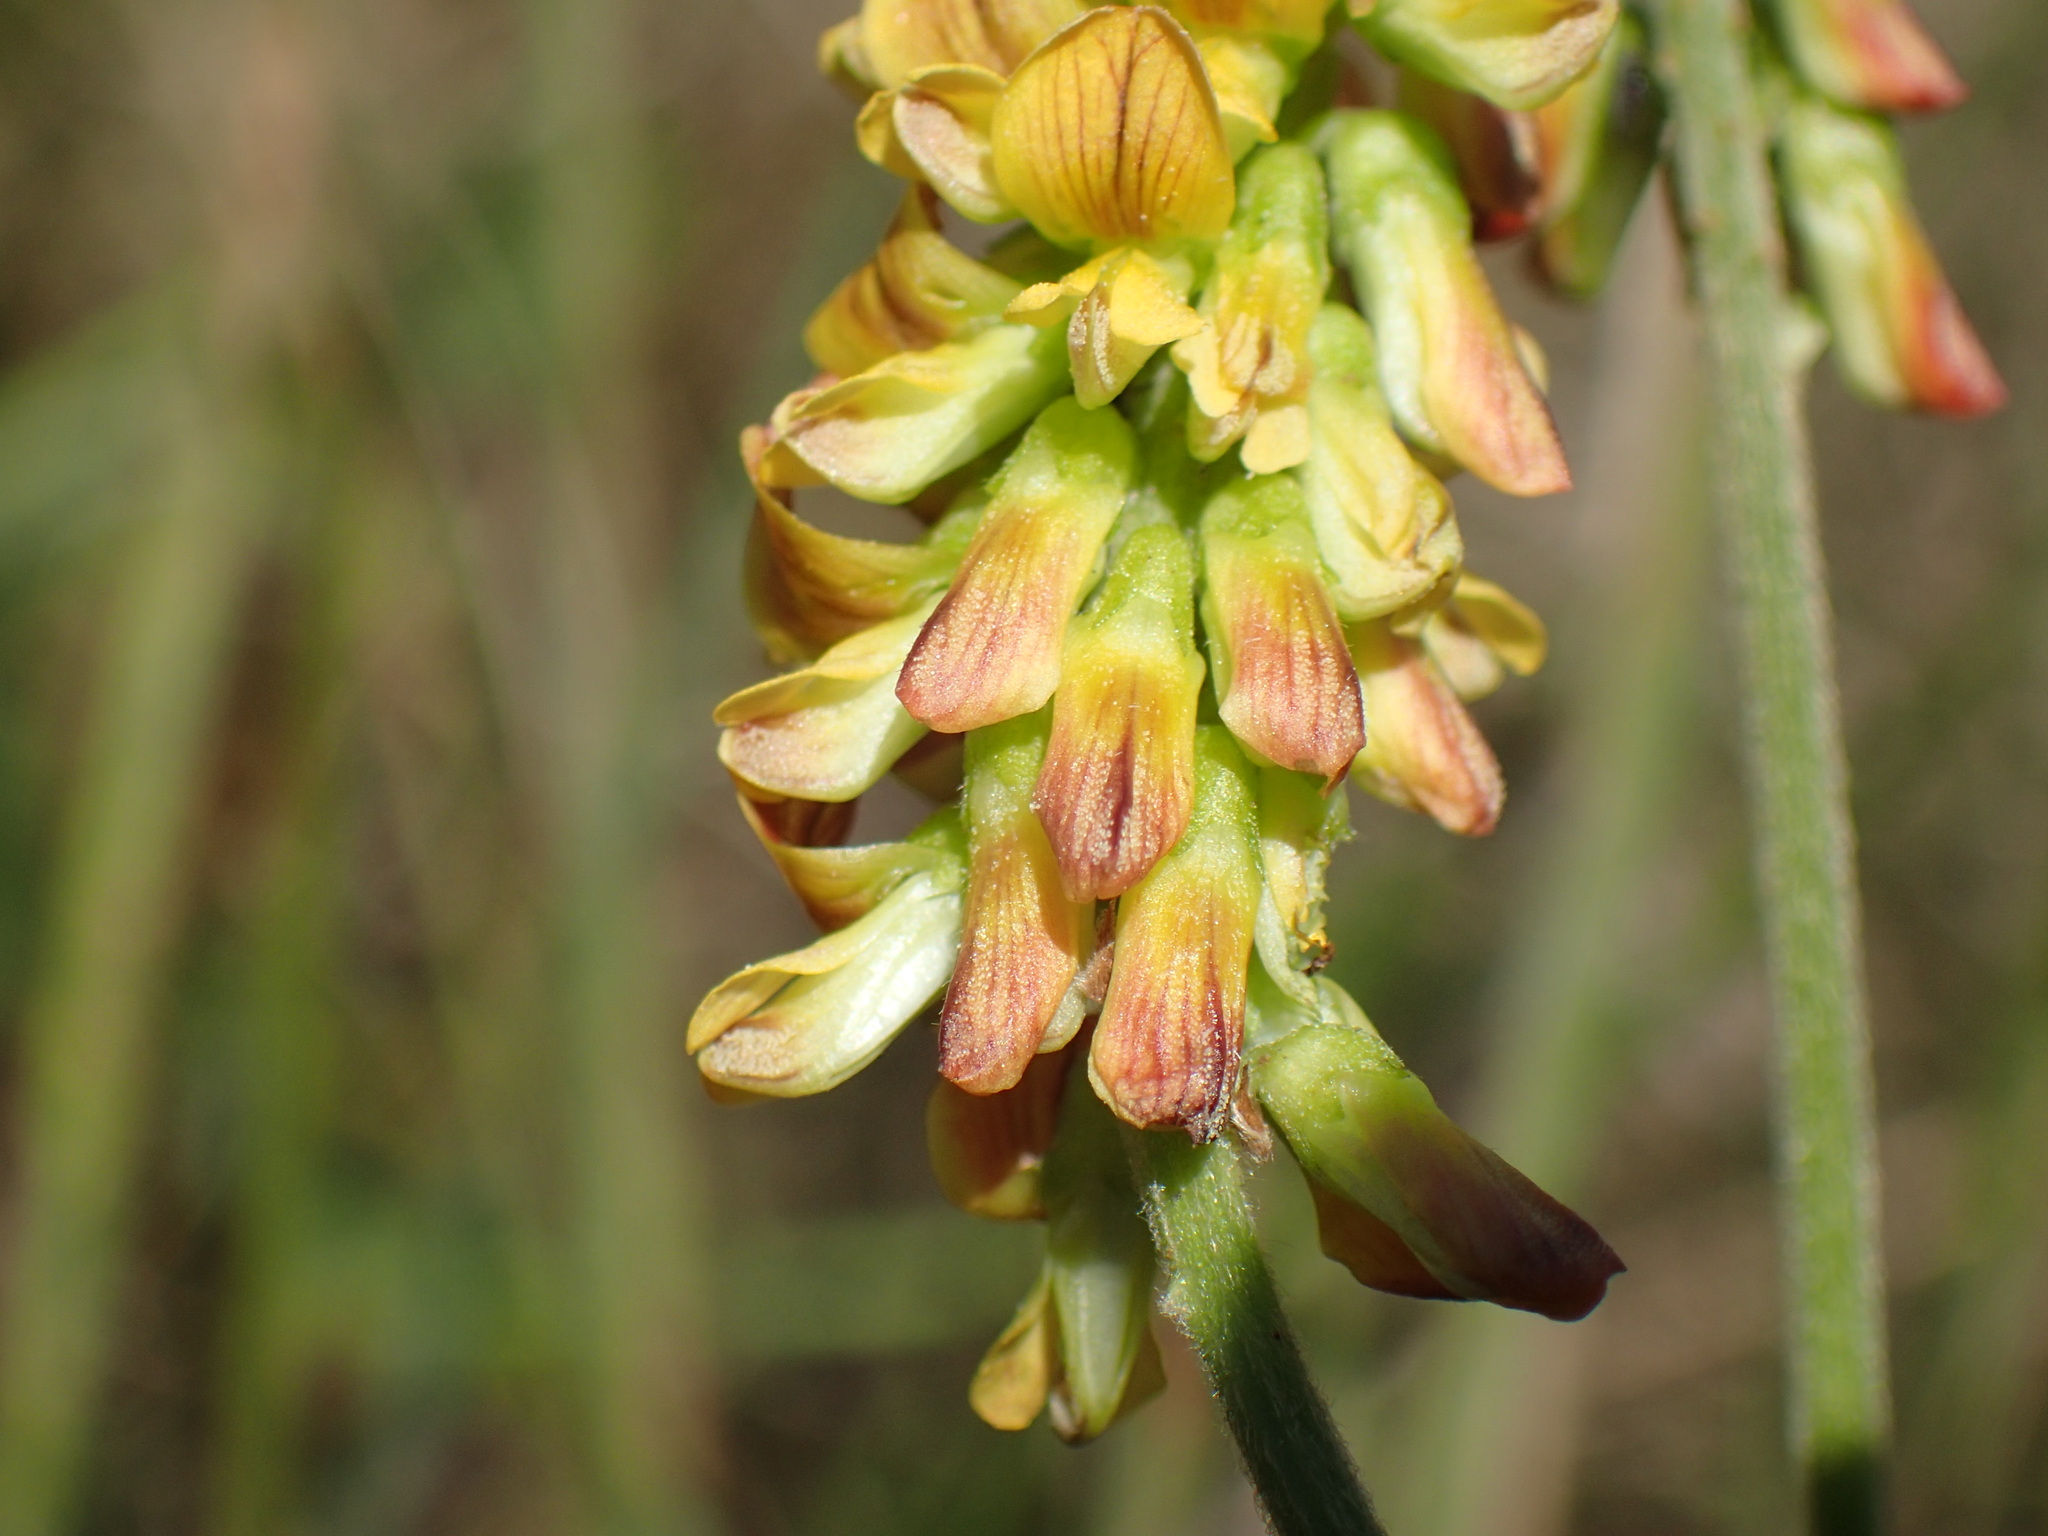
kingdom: Plantae
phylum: Tracheophyta
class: Magnoliopsida
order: Fabales
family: Fabaceae
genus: Eriosema
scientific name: Eriosema preptum
